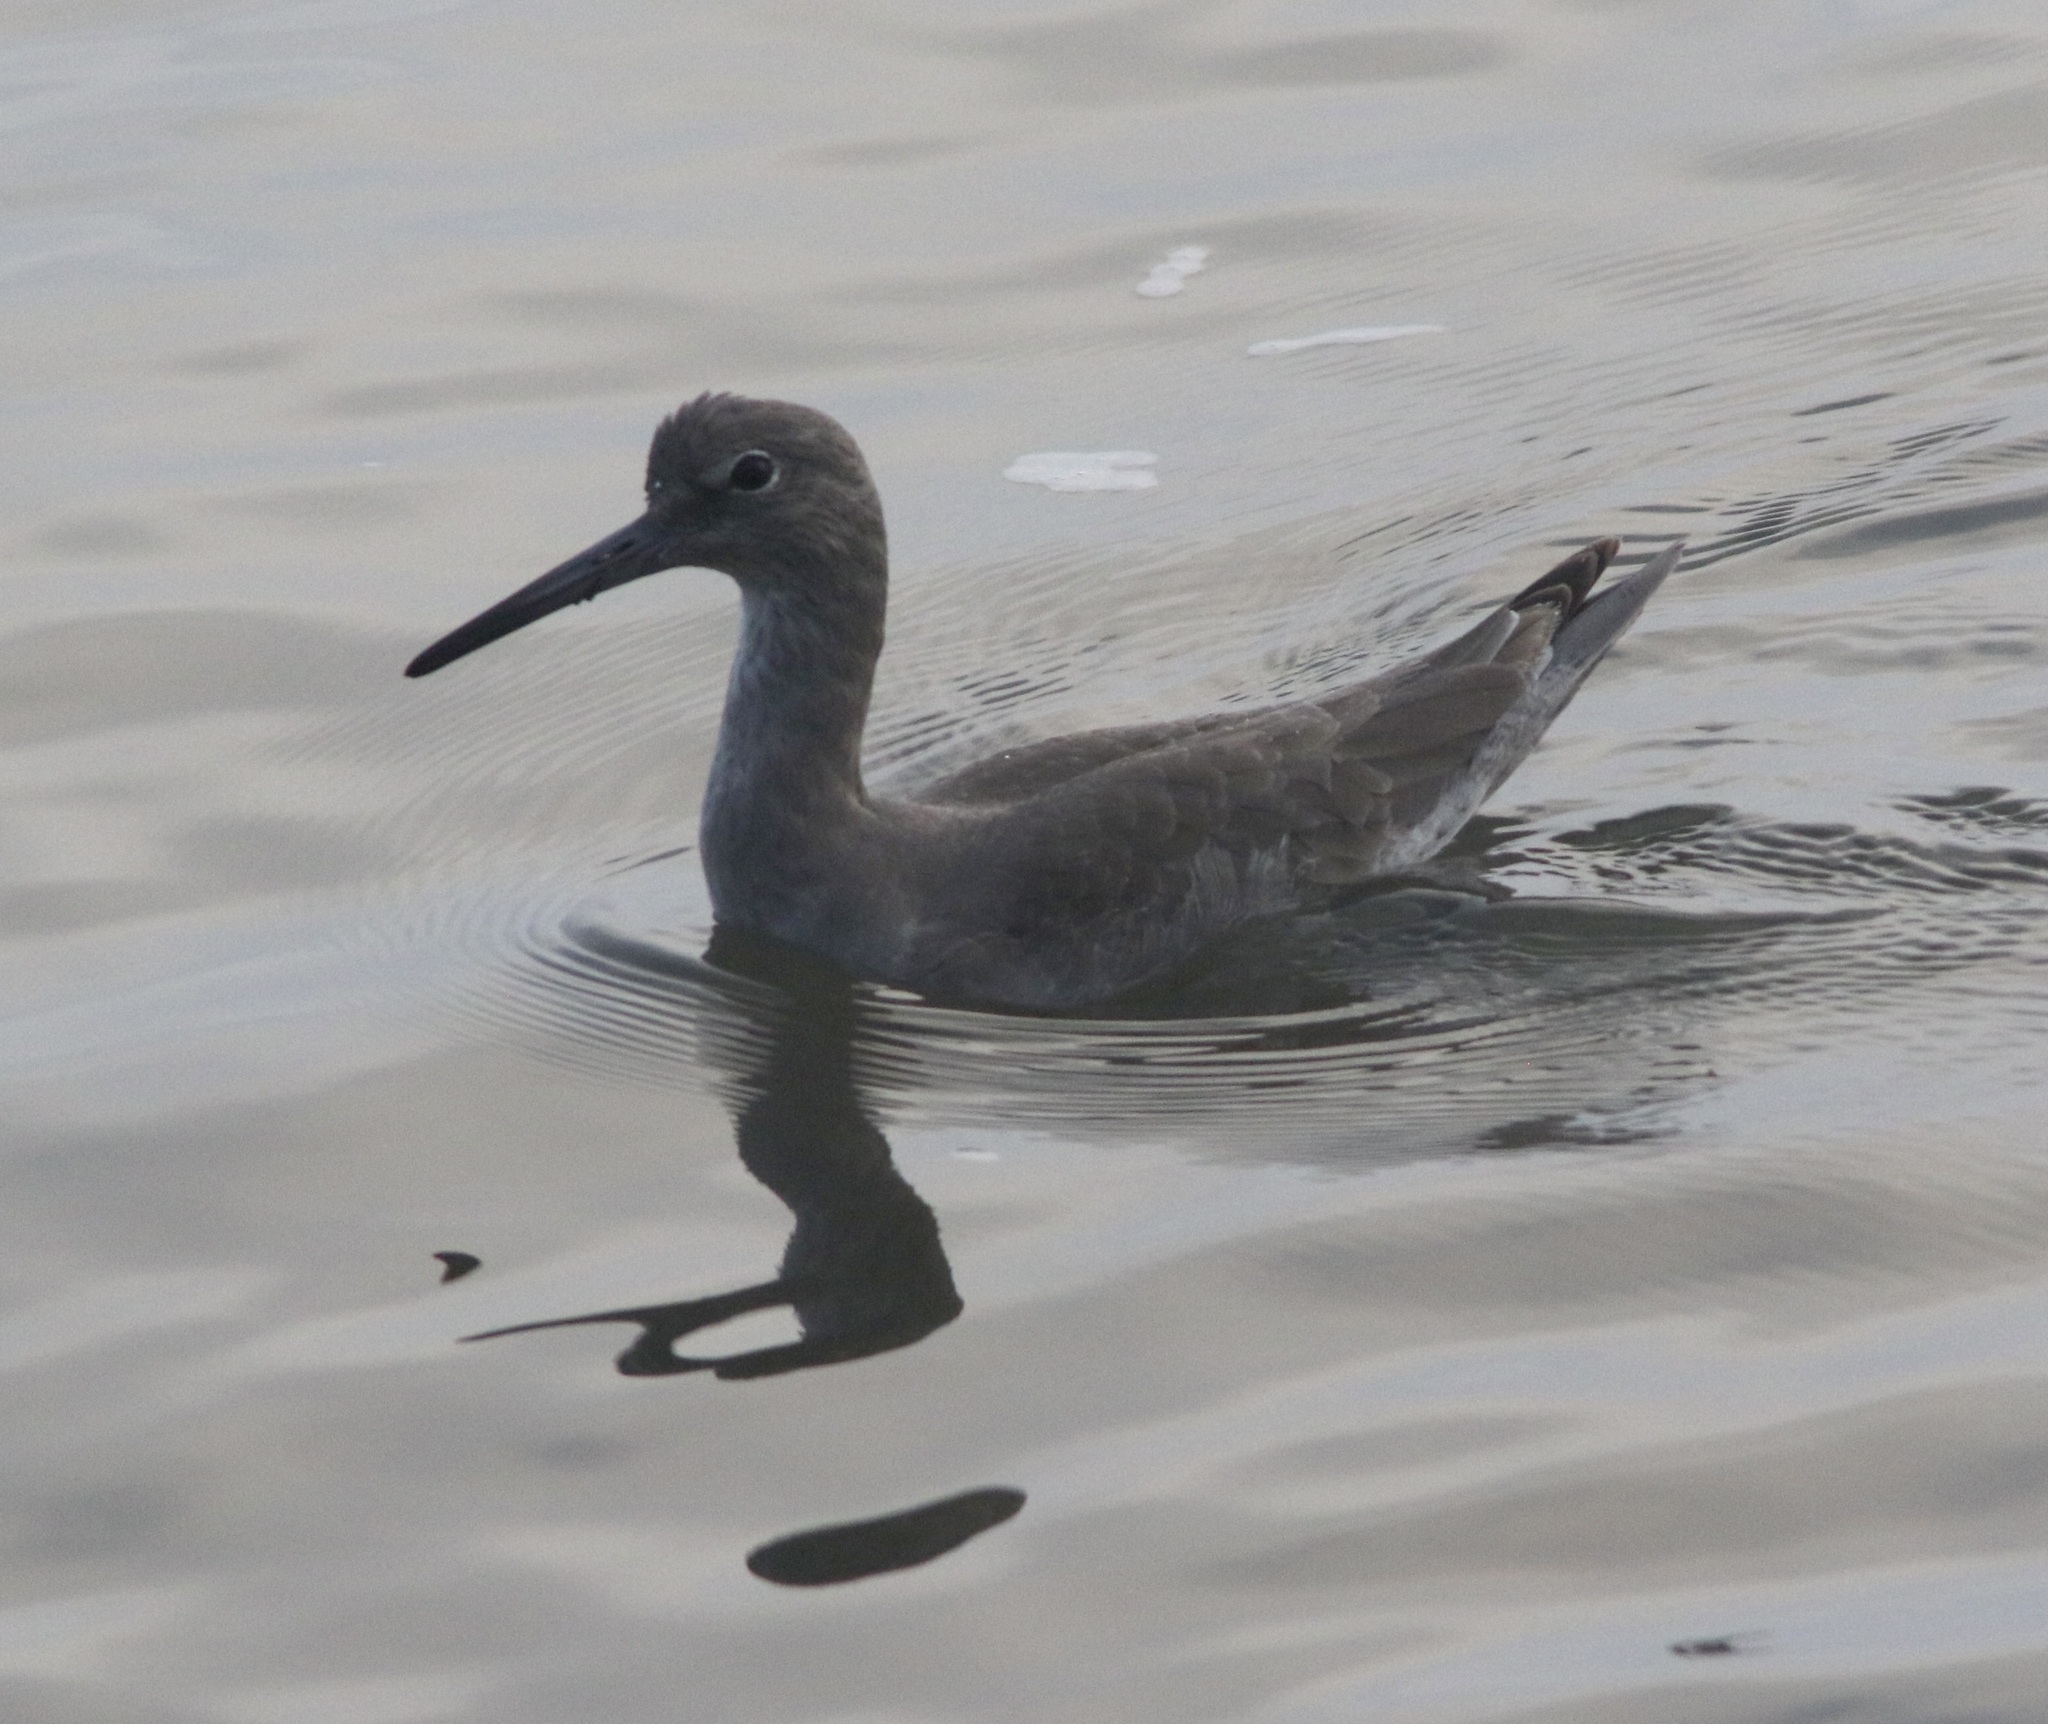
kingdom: Animalia
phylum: Chordata
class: Aves
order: Charadriiformes
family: Scolopacidae
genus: Tringa
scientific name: Tringa semipalmata
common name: Willet
